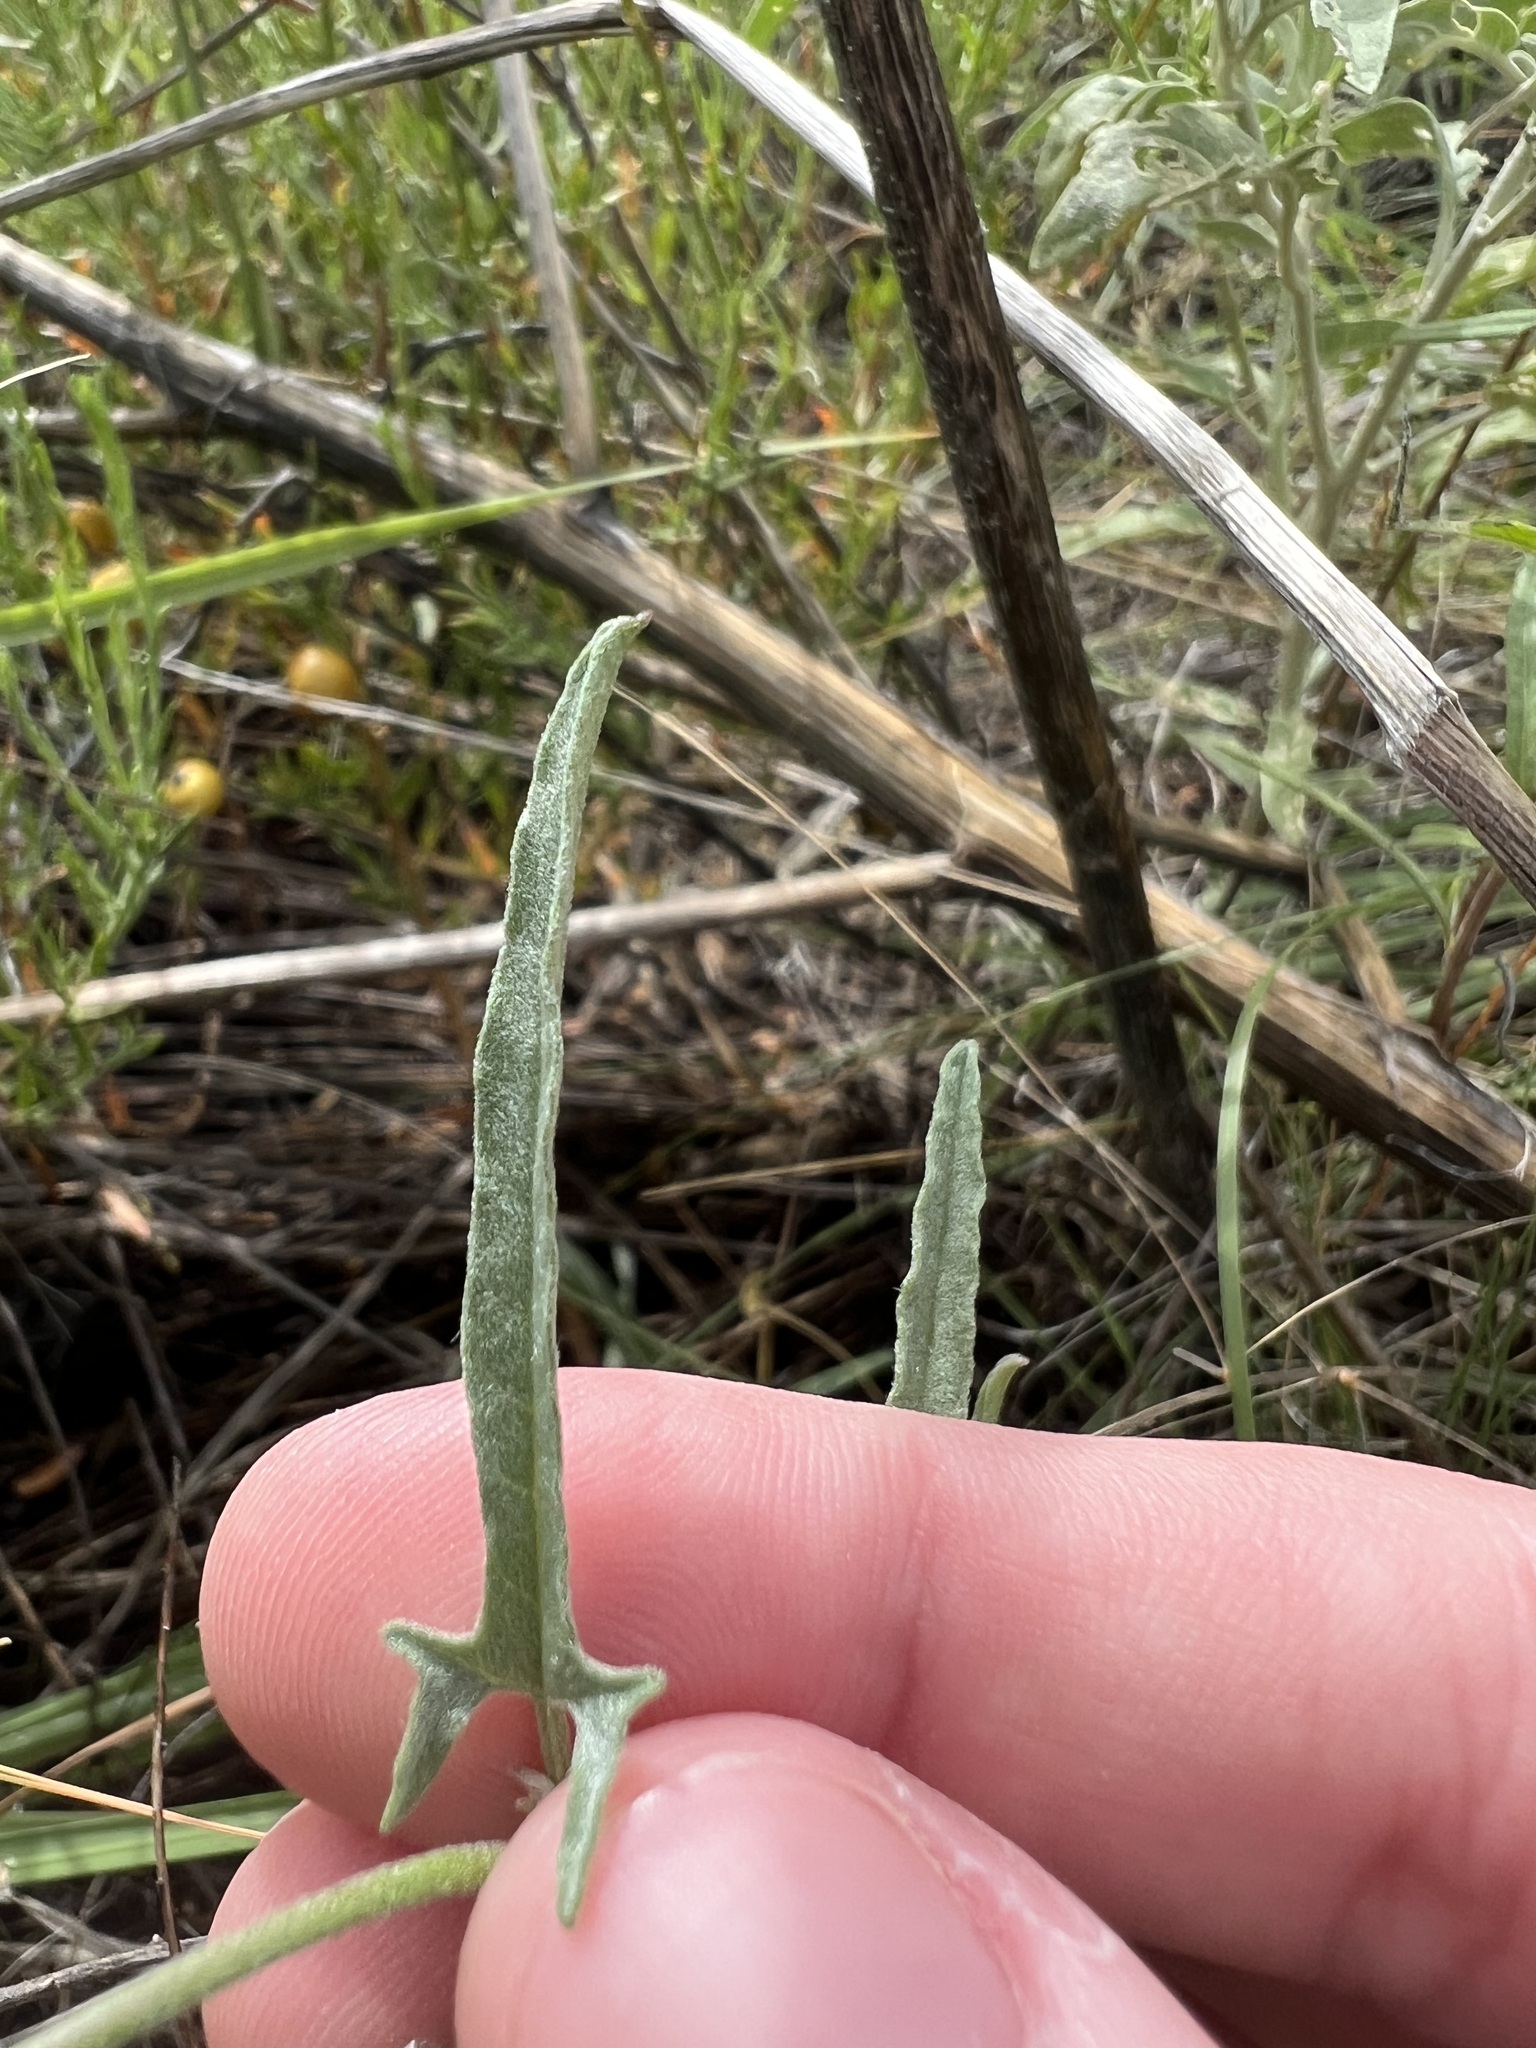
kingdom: Plantae
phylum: Tracheophyta
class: Magnoliopsida
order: Solanales
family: Convolvulaceae
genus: Convolvulus
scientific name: Convolvulus equitans
